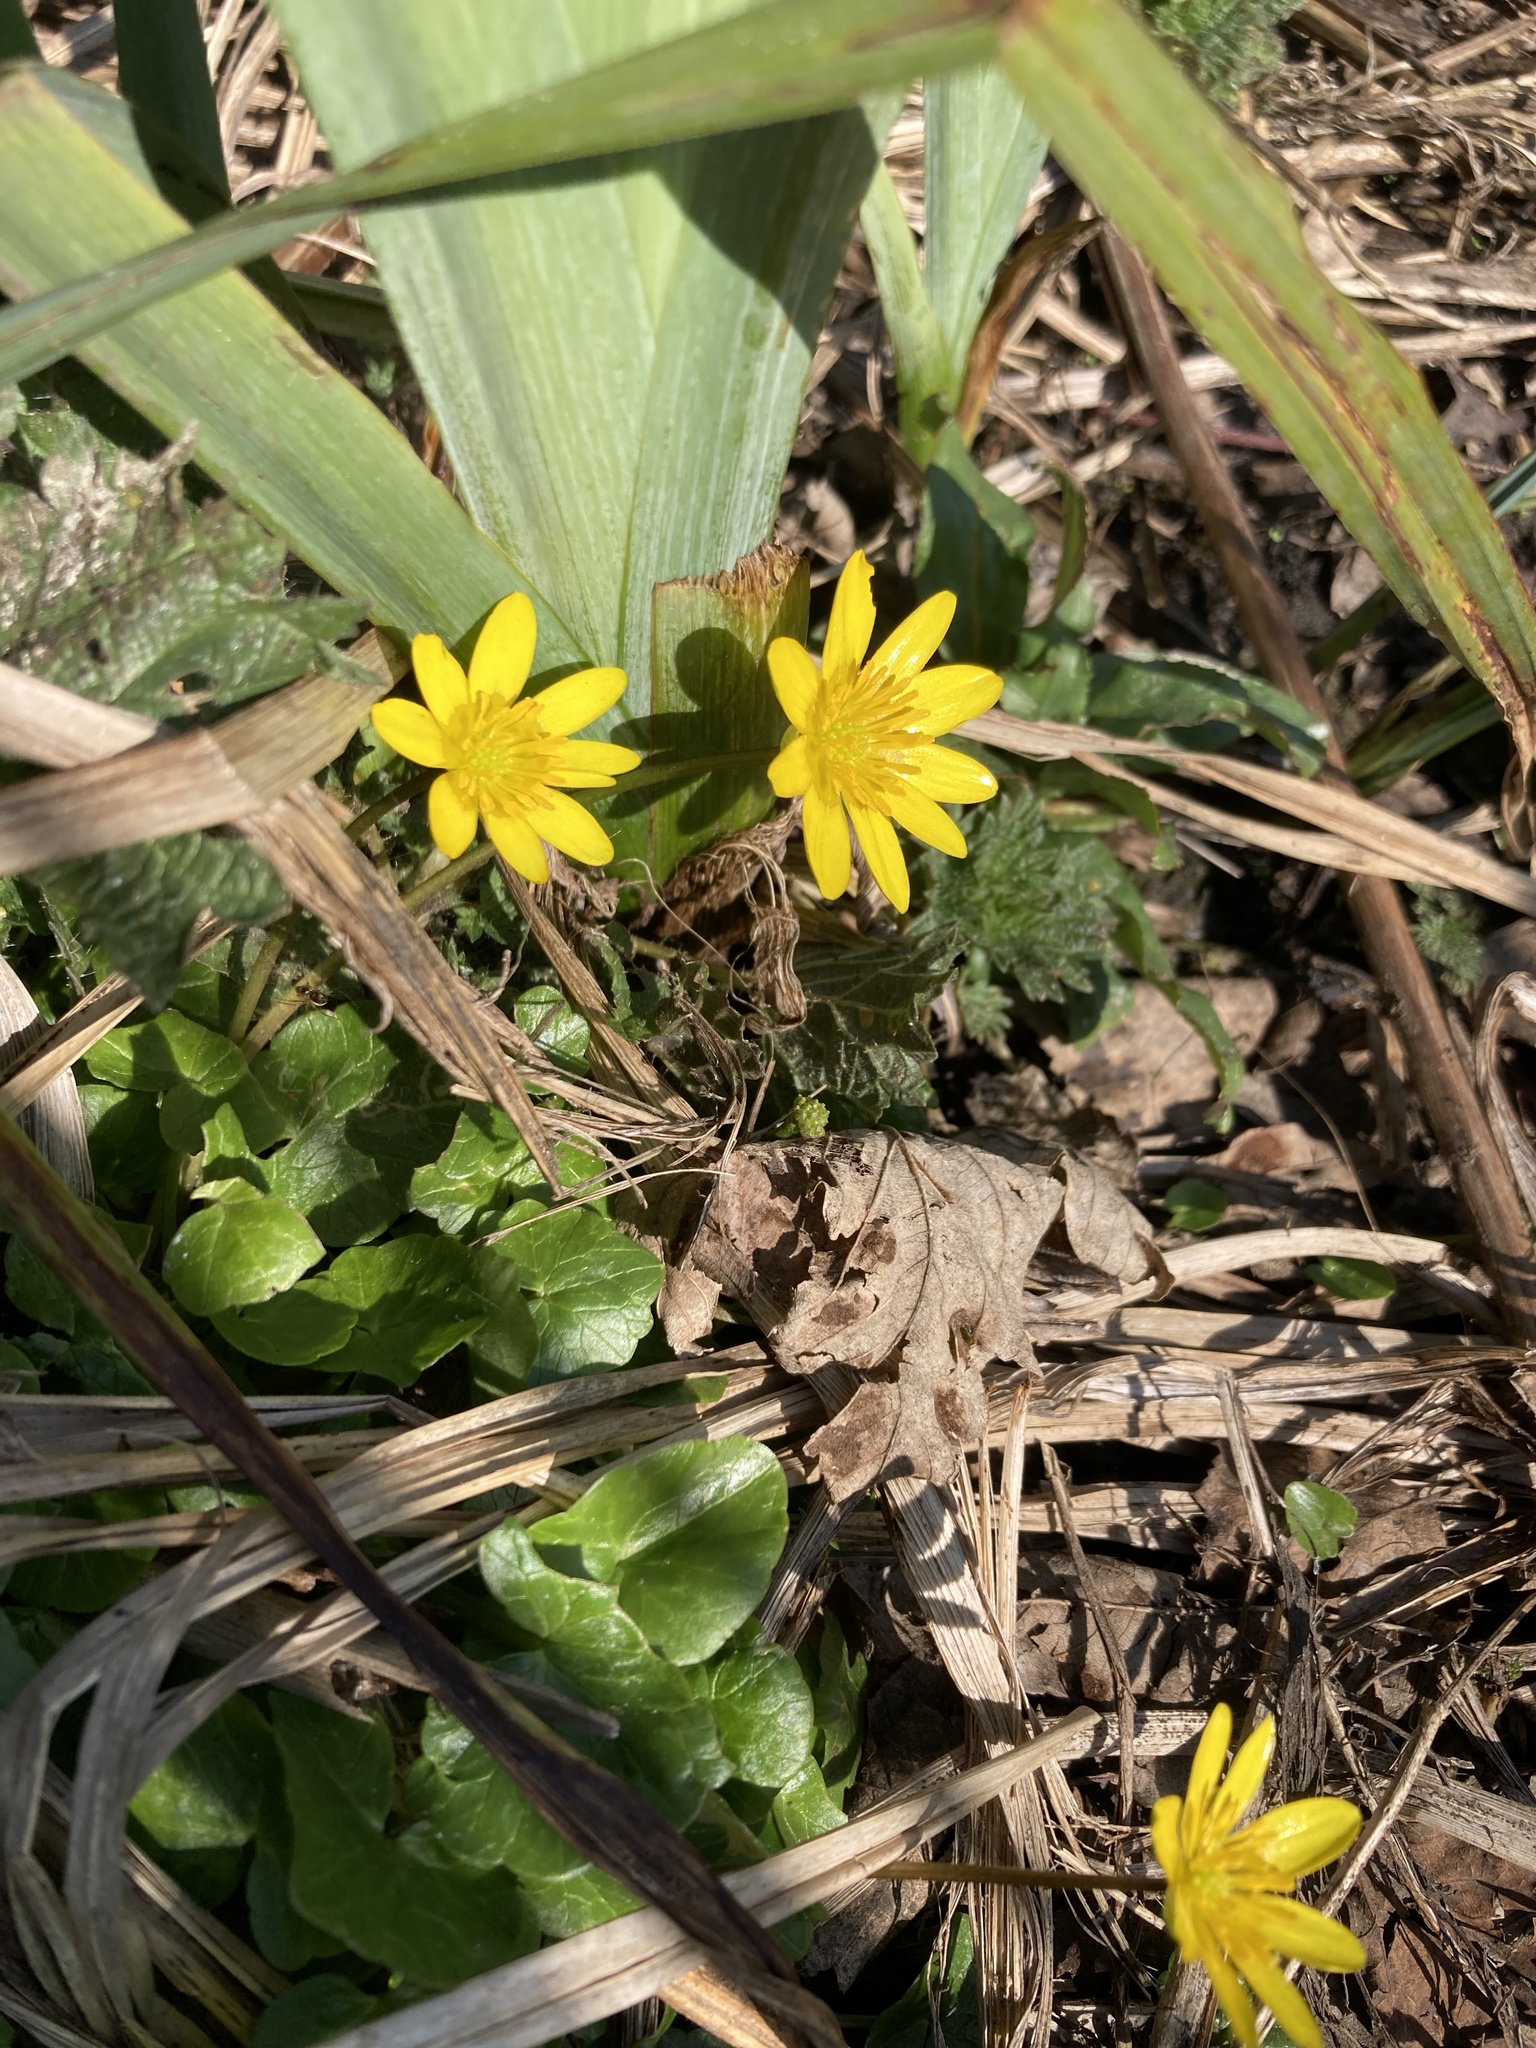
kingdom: Plantae
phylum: Tracheophyta
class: Magnoliopsida
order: Ranunculales
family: Ranunculaceae
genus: Ficaria
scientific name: Ficaria verna
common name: Lesser celandine
